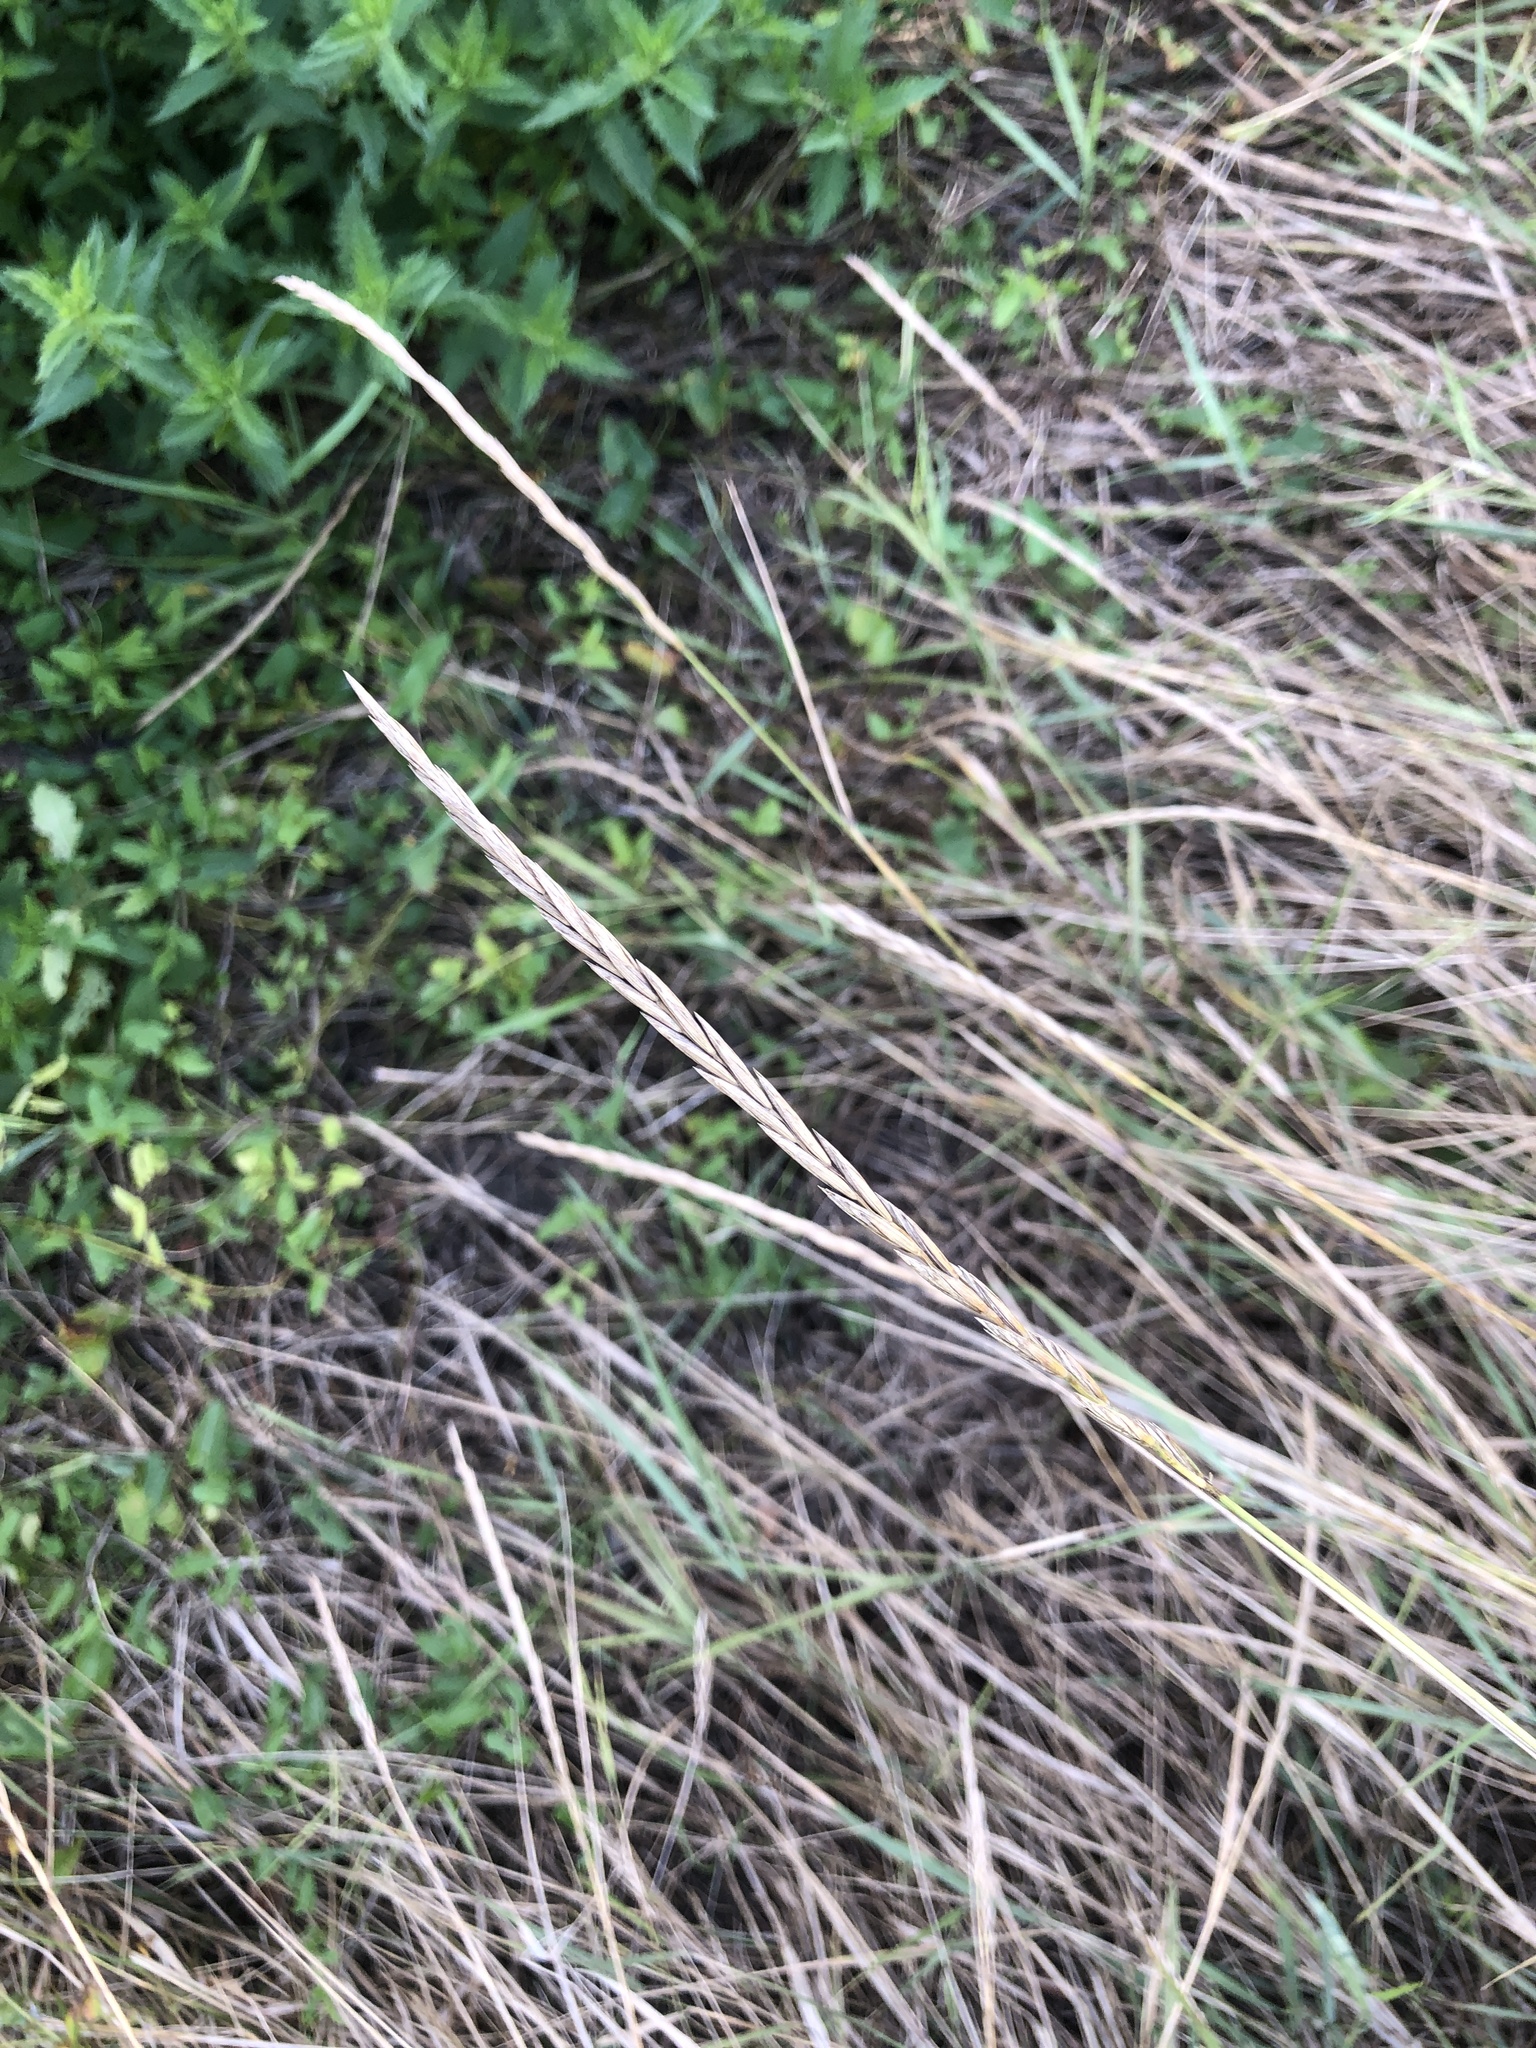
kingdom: Plantae
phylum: Tracheophyta
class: Liliopsida
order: Poales
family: Poaceae
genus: Elymus
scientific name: Elymus repens
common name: Quackgrass
